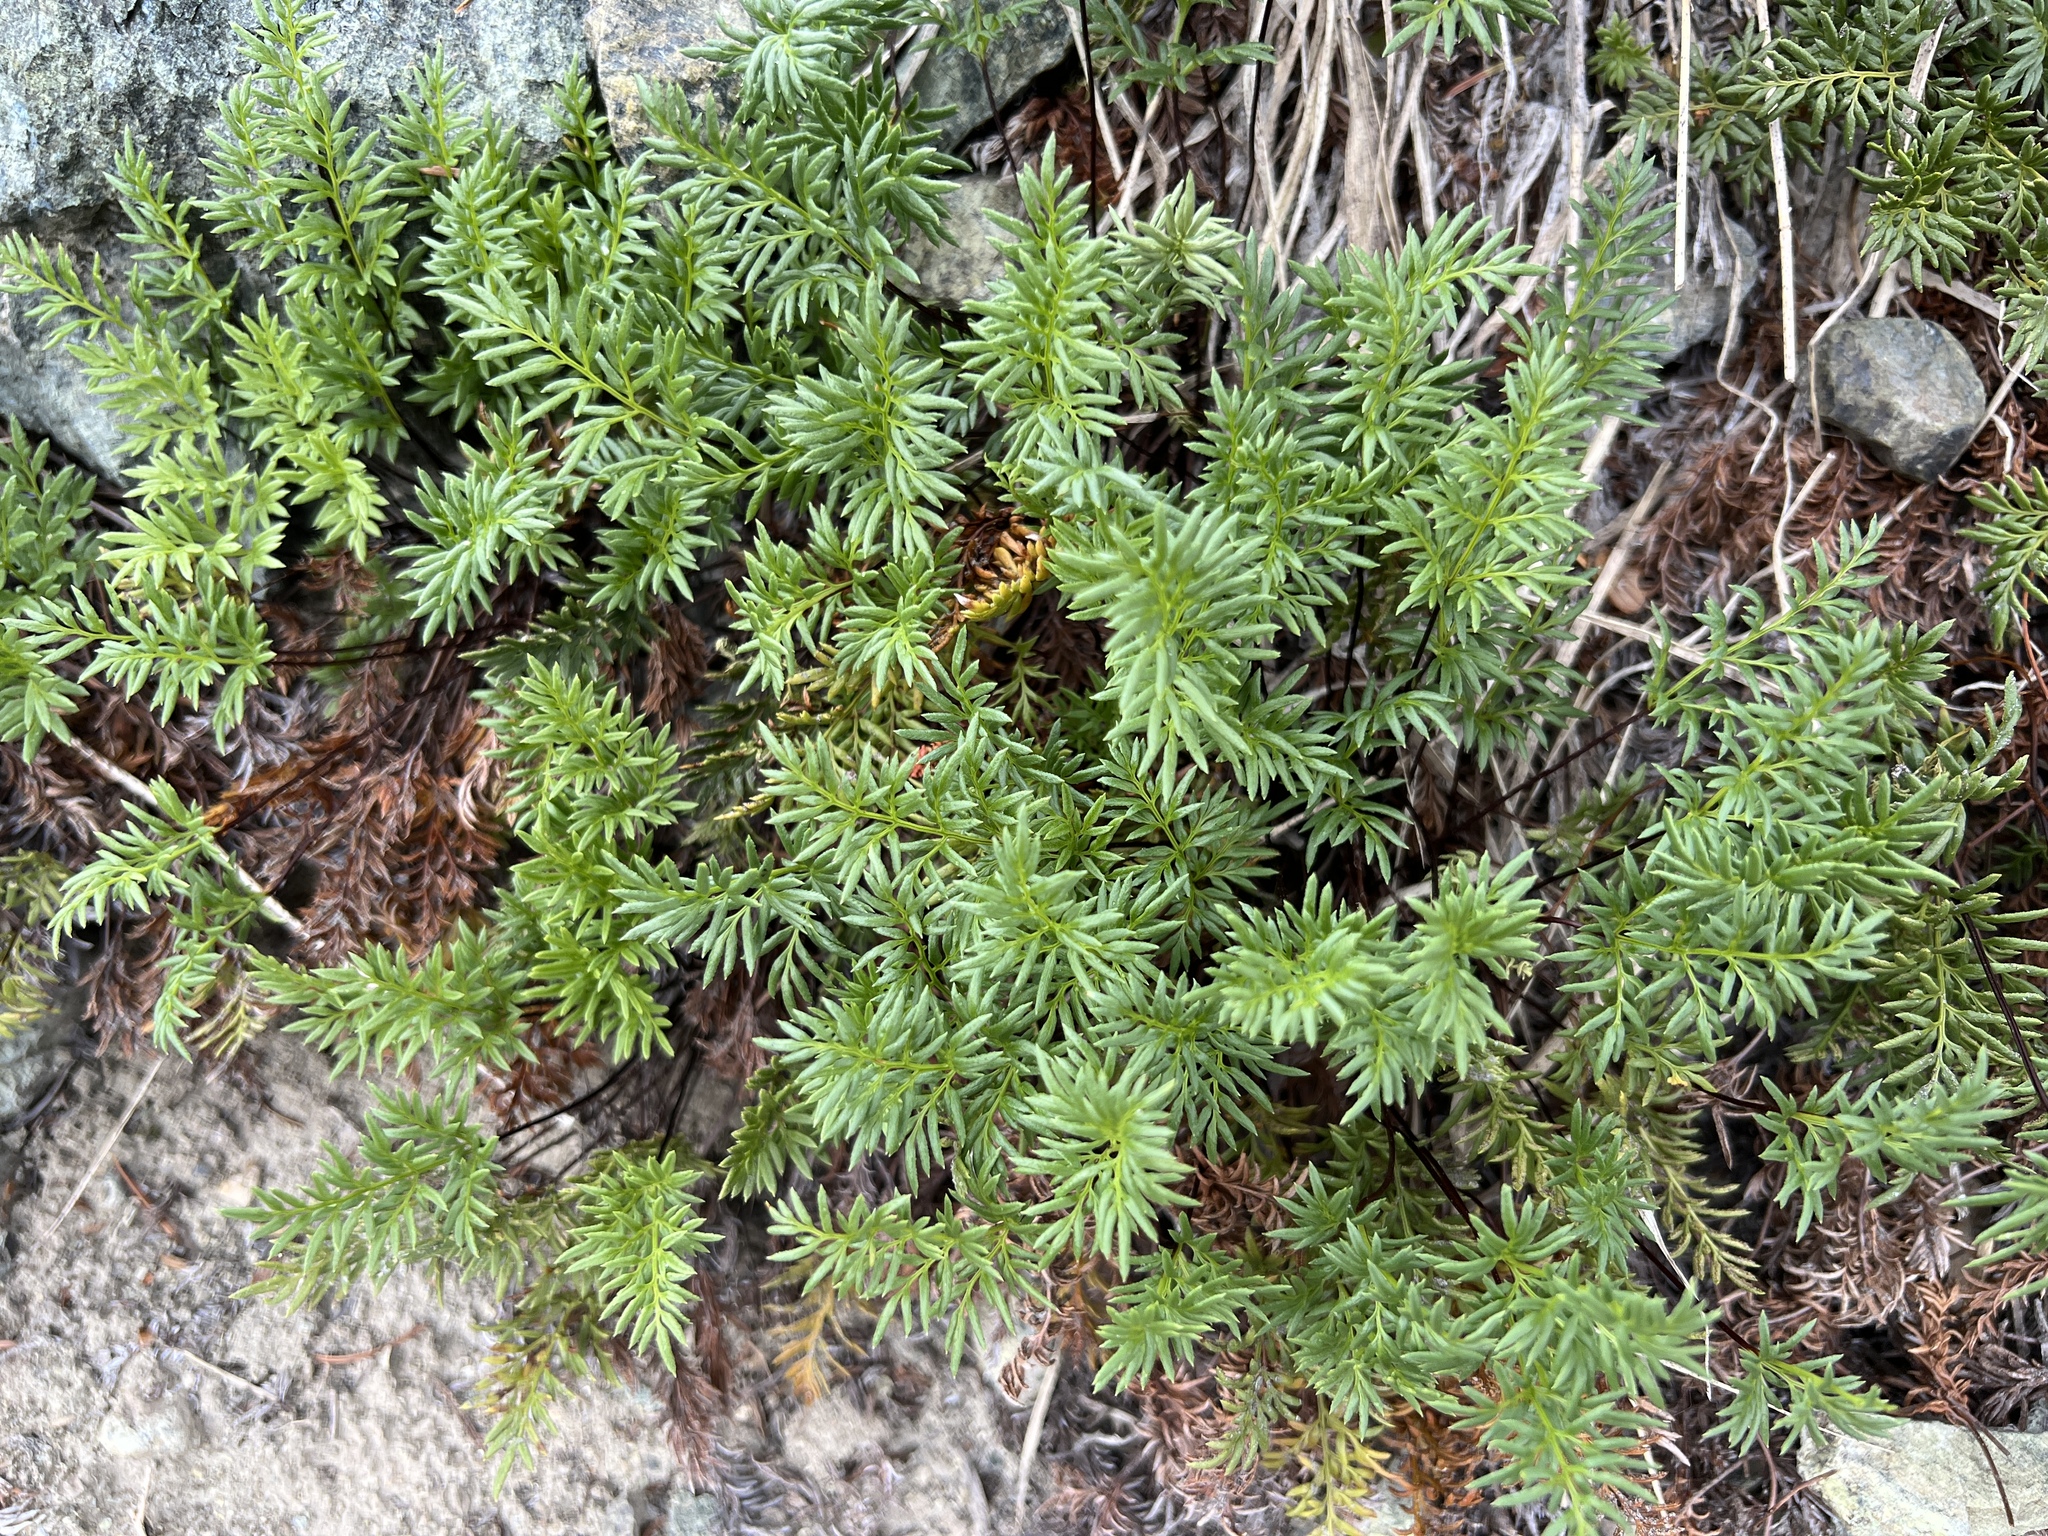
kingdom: Plantae
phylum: Tracheophyta
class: Polypodiopsida
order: Polypodiales
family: Pteridaceae
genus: Aspidotis
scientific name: Aspidotis densa
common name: Indian's dream
